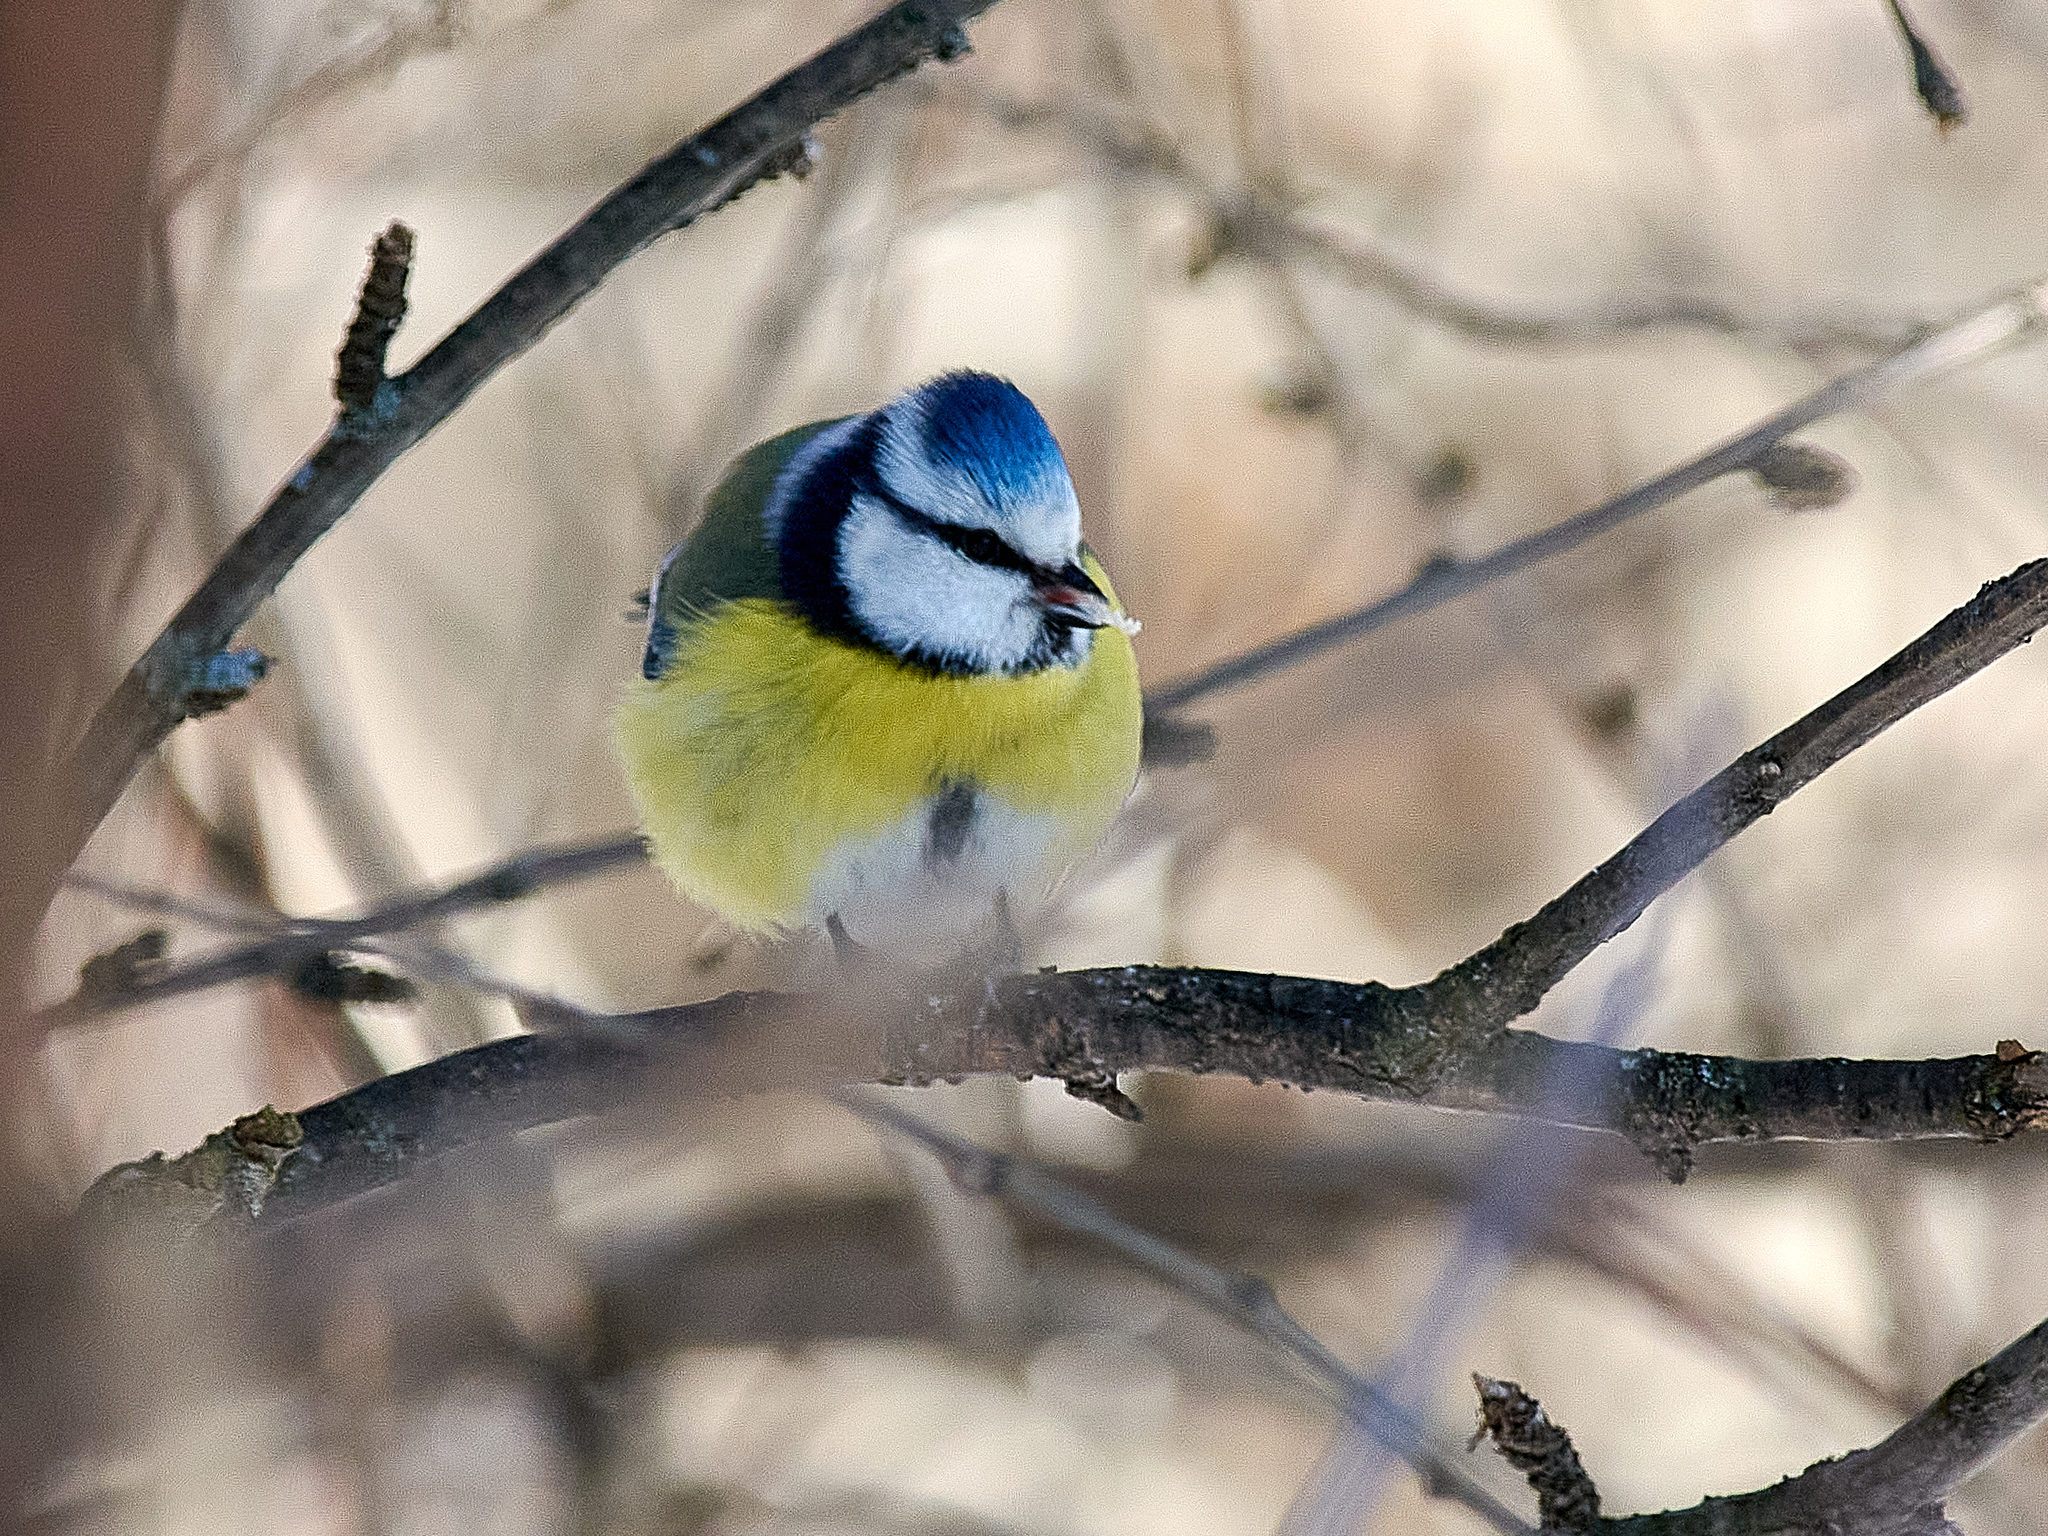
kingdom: Animalia
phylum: Chordata
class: Aves
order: Passeriformes
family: Paridae
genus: Cyanistes
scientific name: Cyanistes caeruleus
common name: Eurasian blue tit
